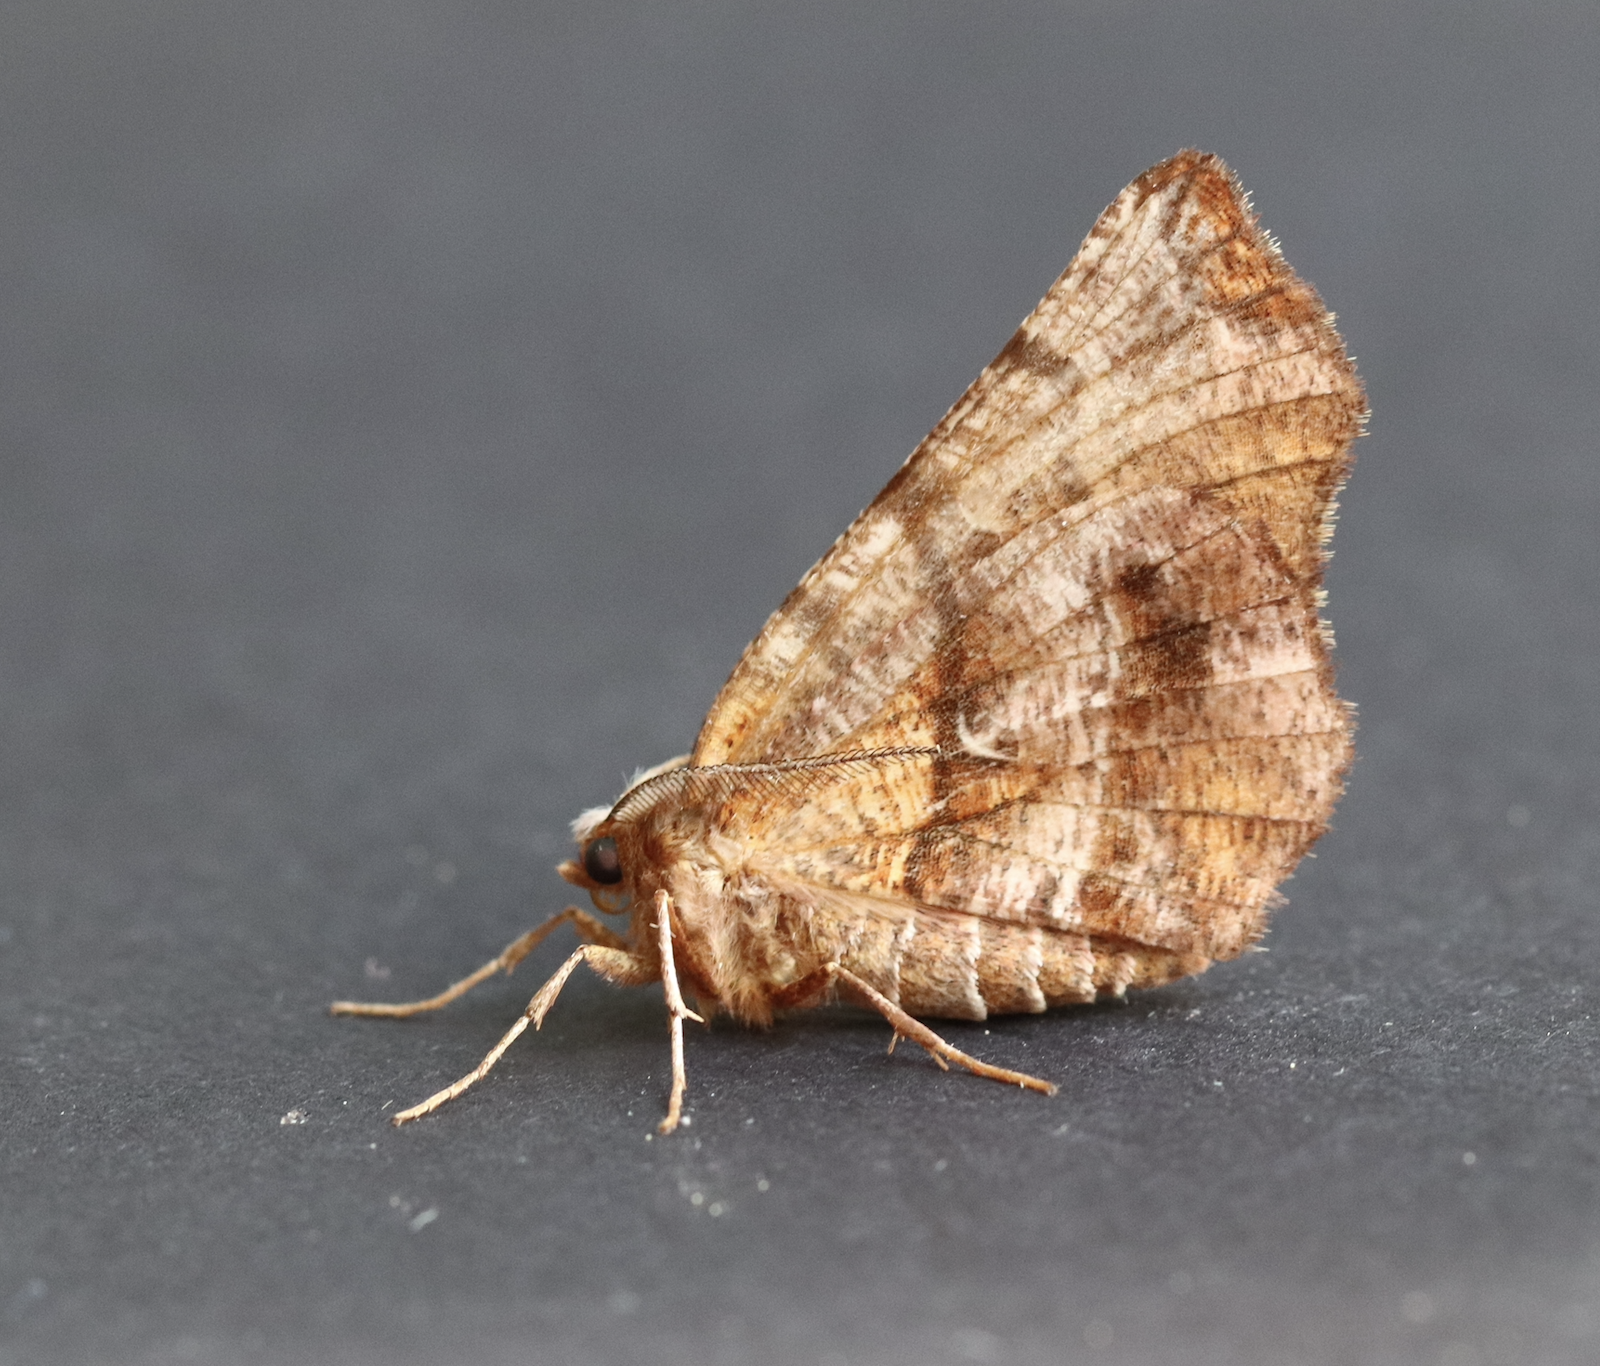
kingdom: Animalia
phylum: Arthropoda
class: Insecta
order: Lepidoptera
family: Geometridae
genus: Selenia
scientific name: Selenia dentaria
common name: Early thorn
